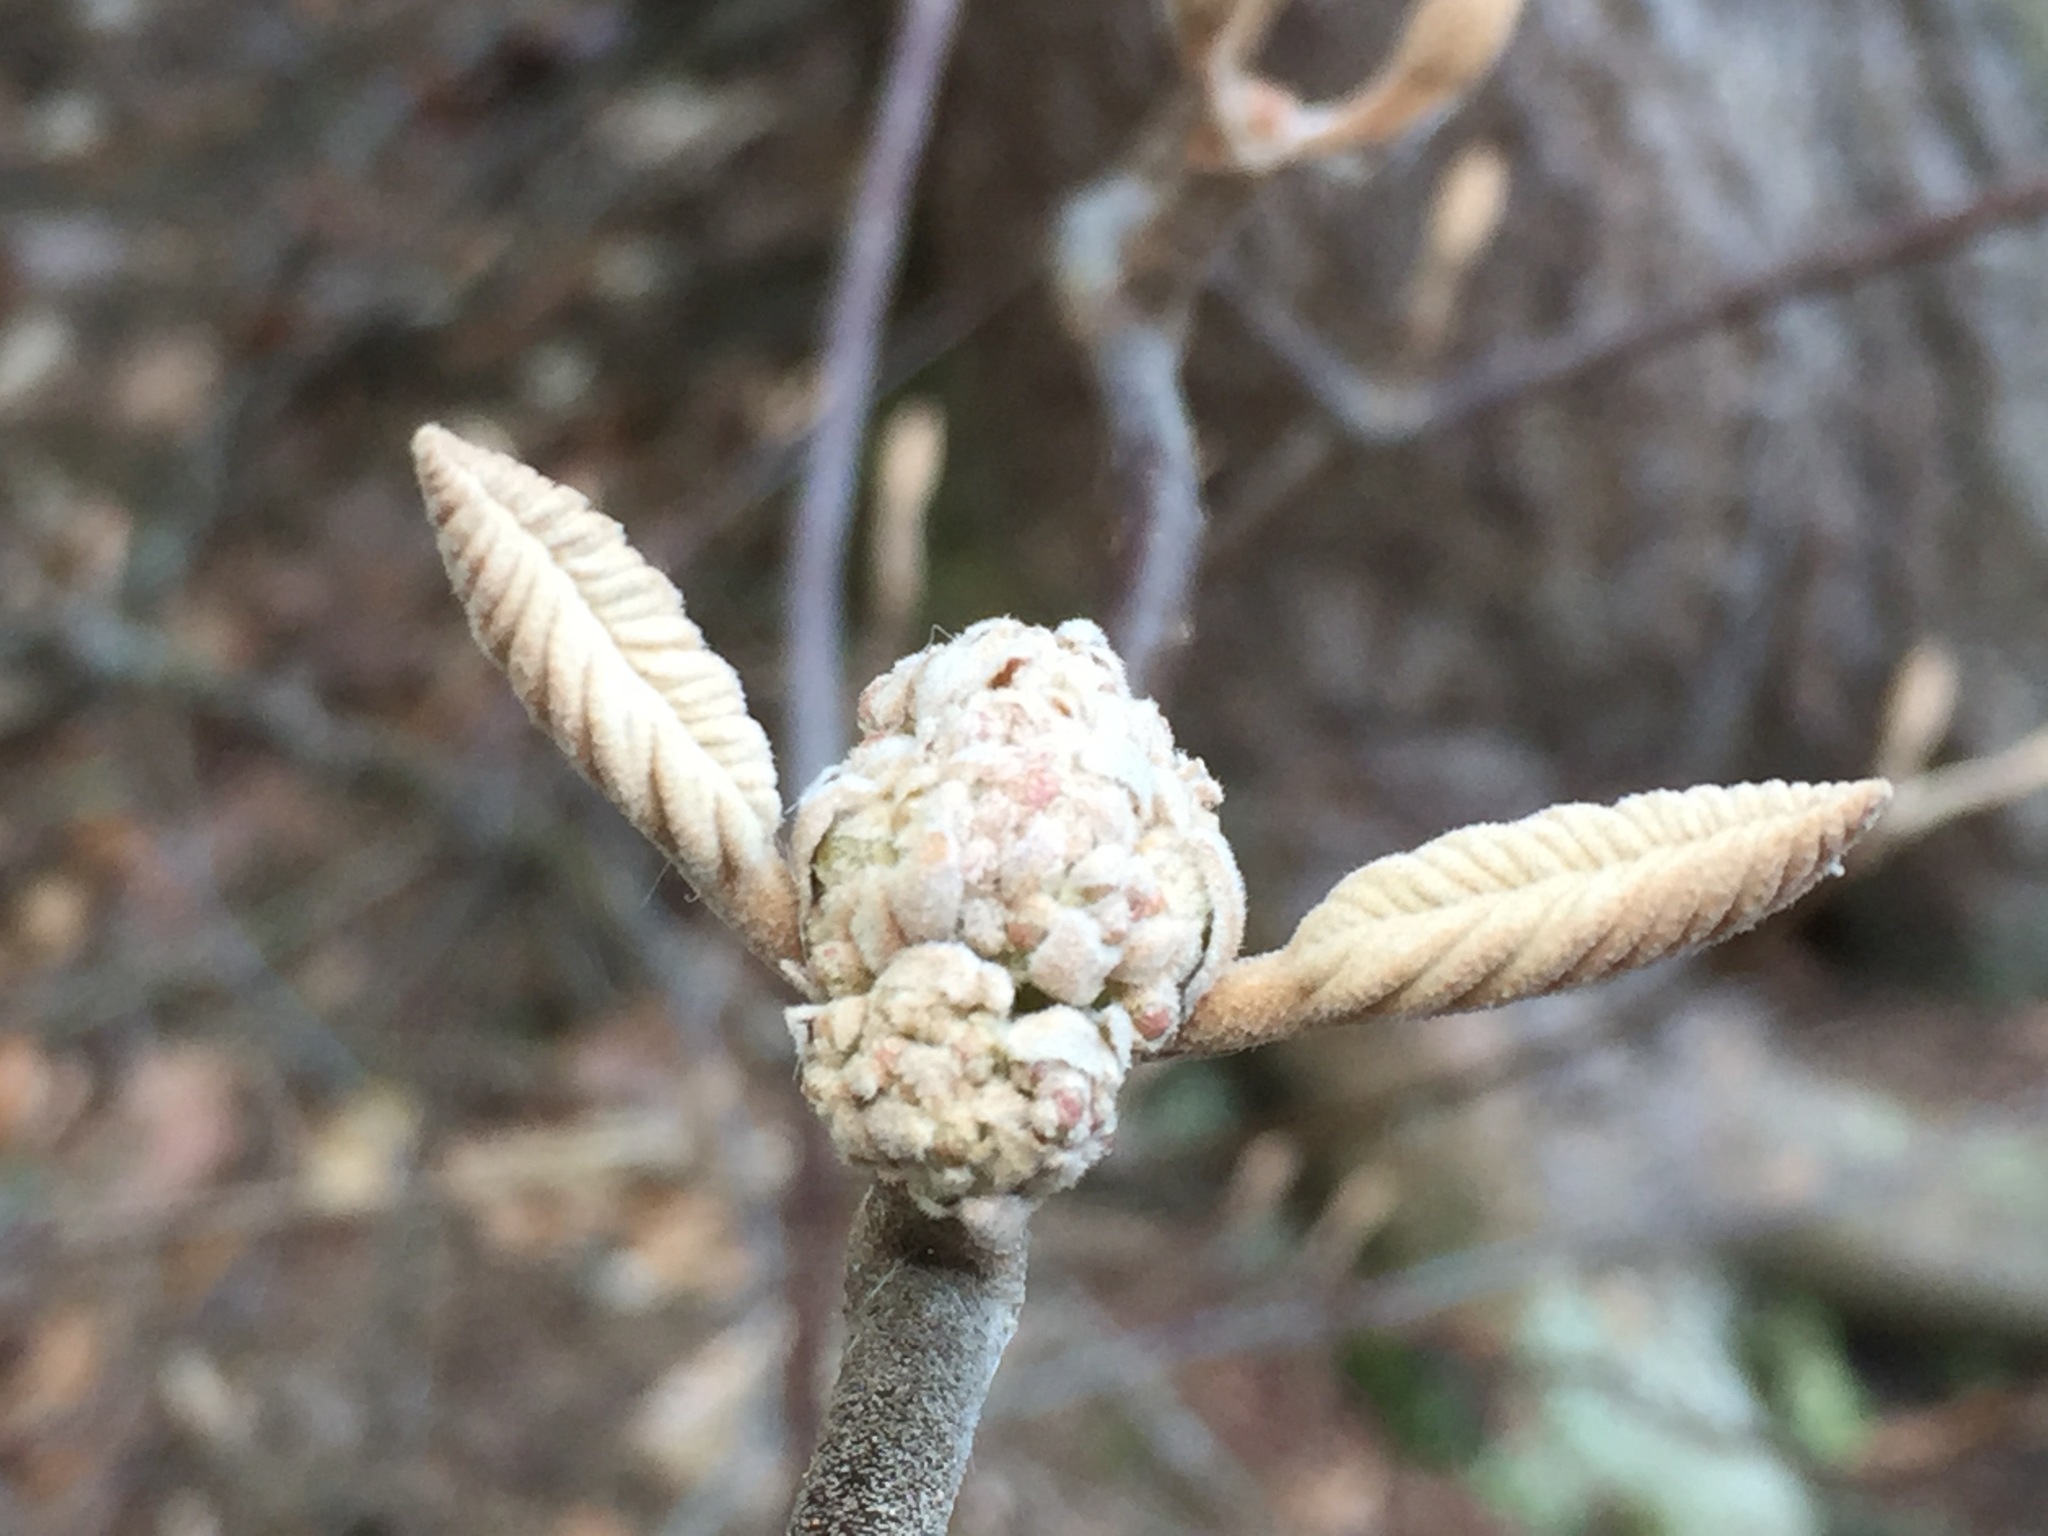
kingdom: Plantae
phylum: Tracheophyta
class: Magnoliopsida
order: Dipsacales
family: Viburnaceae
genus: Viburnum
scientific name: Viburnum lantanoides
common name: Hobblebush
